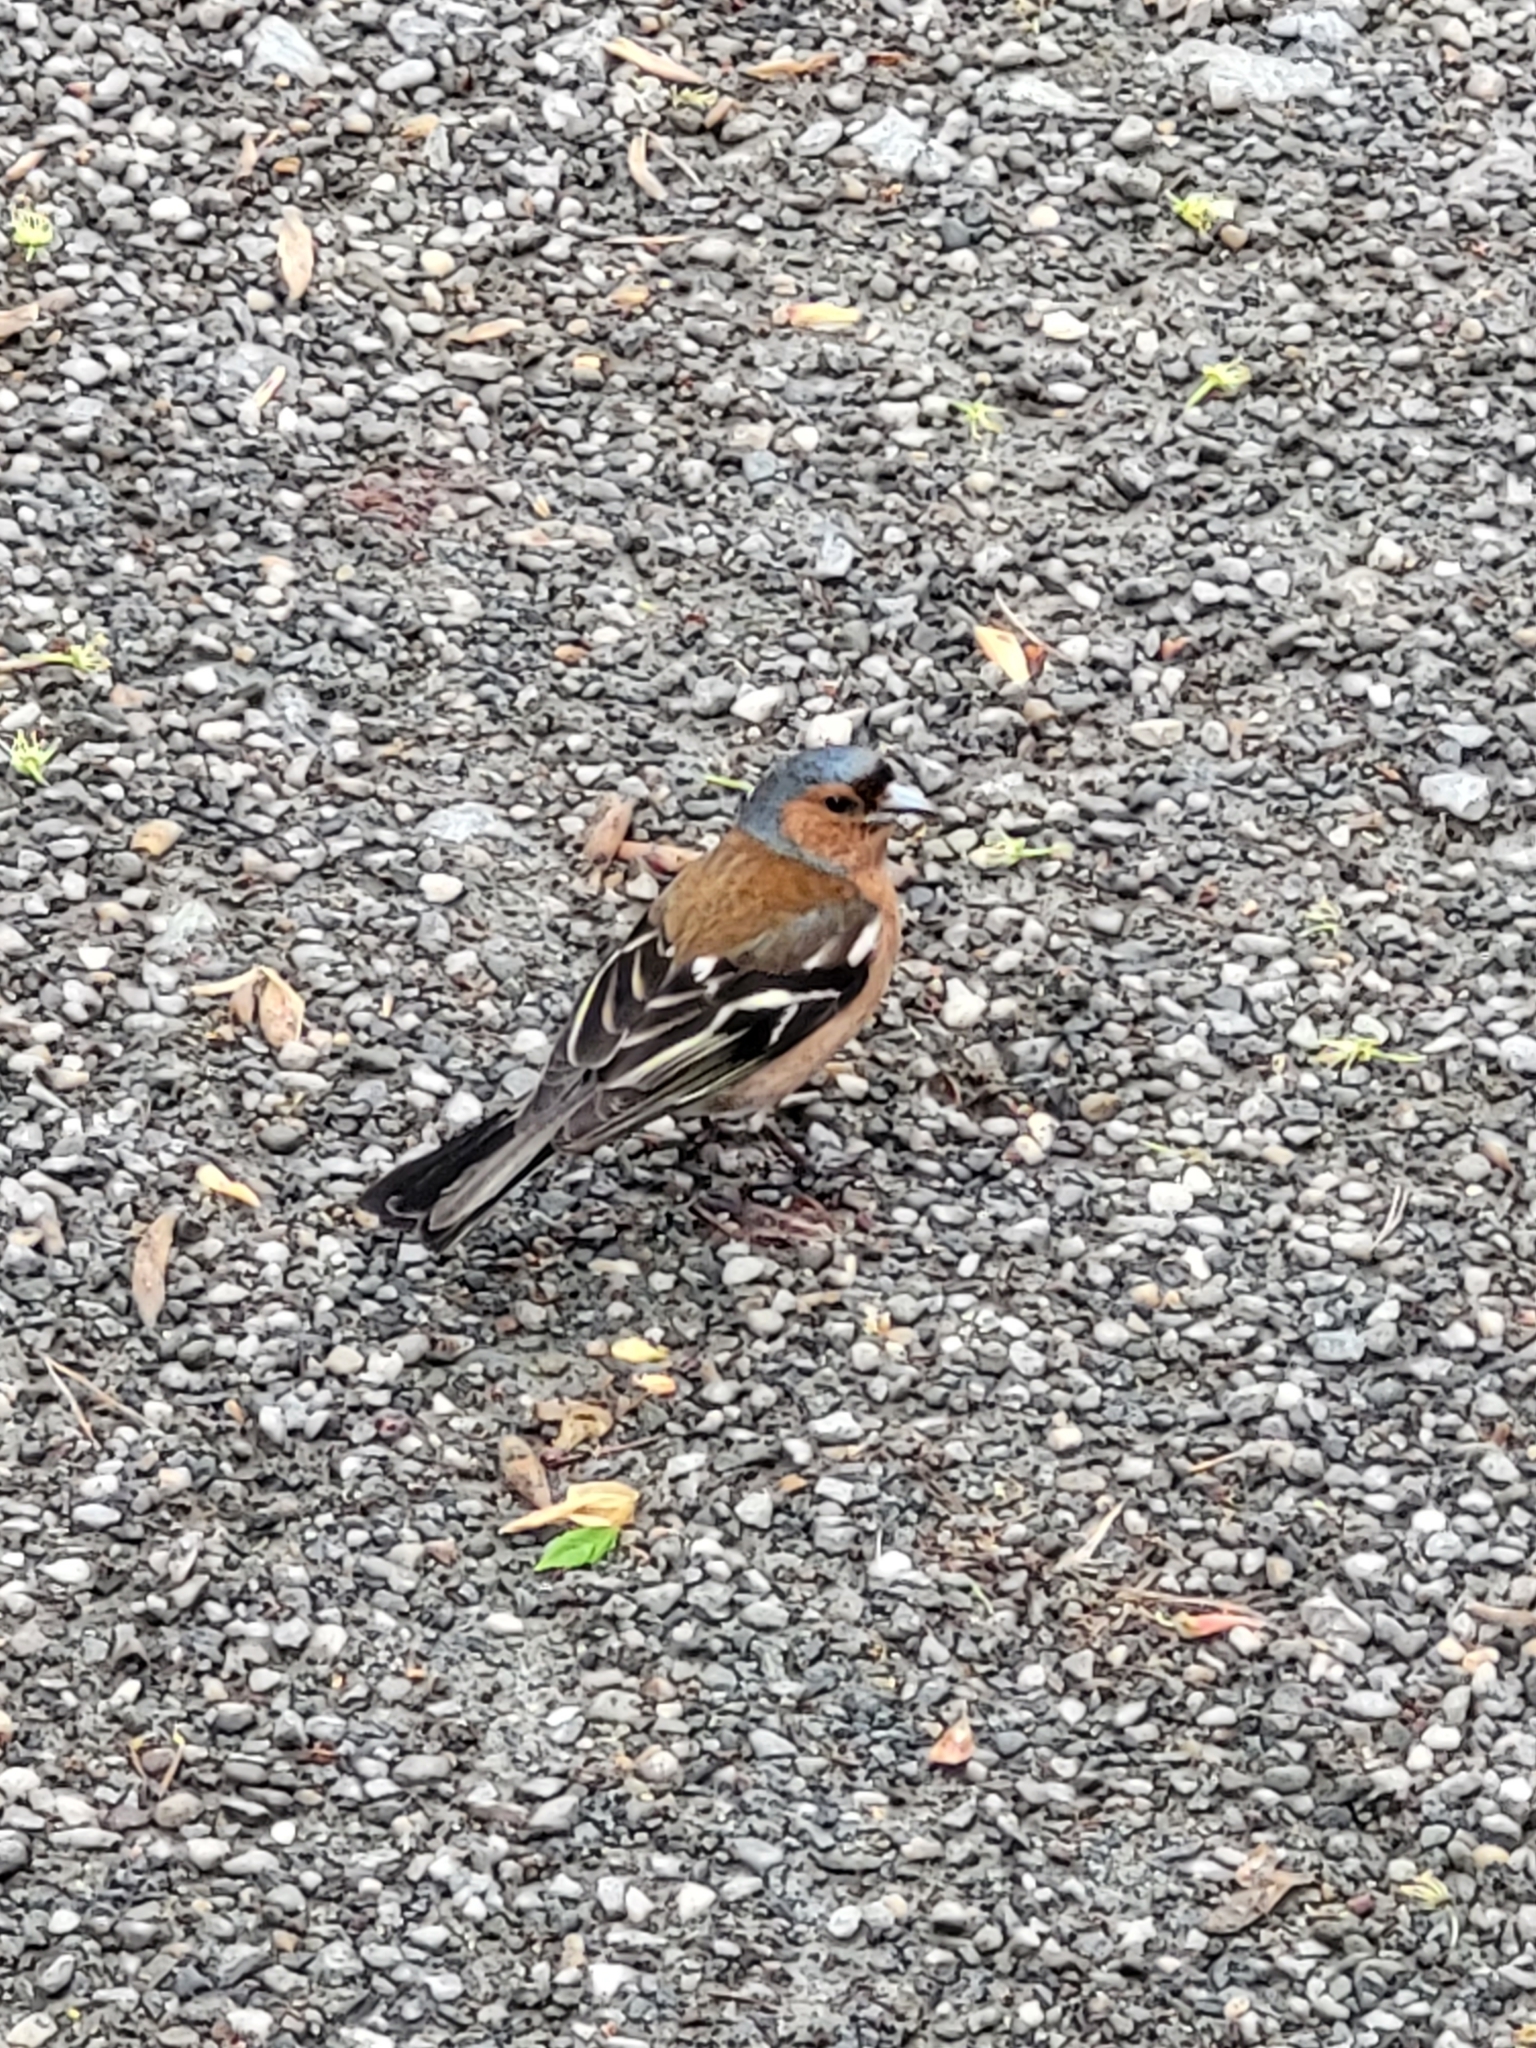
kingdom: Animalia
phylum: Chordata
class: Aves
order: Passeriformes
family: Fringillidae
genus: Fringilla
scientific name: Fringilla coelebs
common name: Common chaffinch
